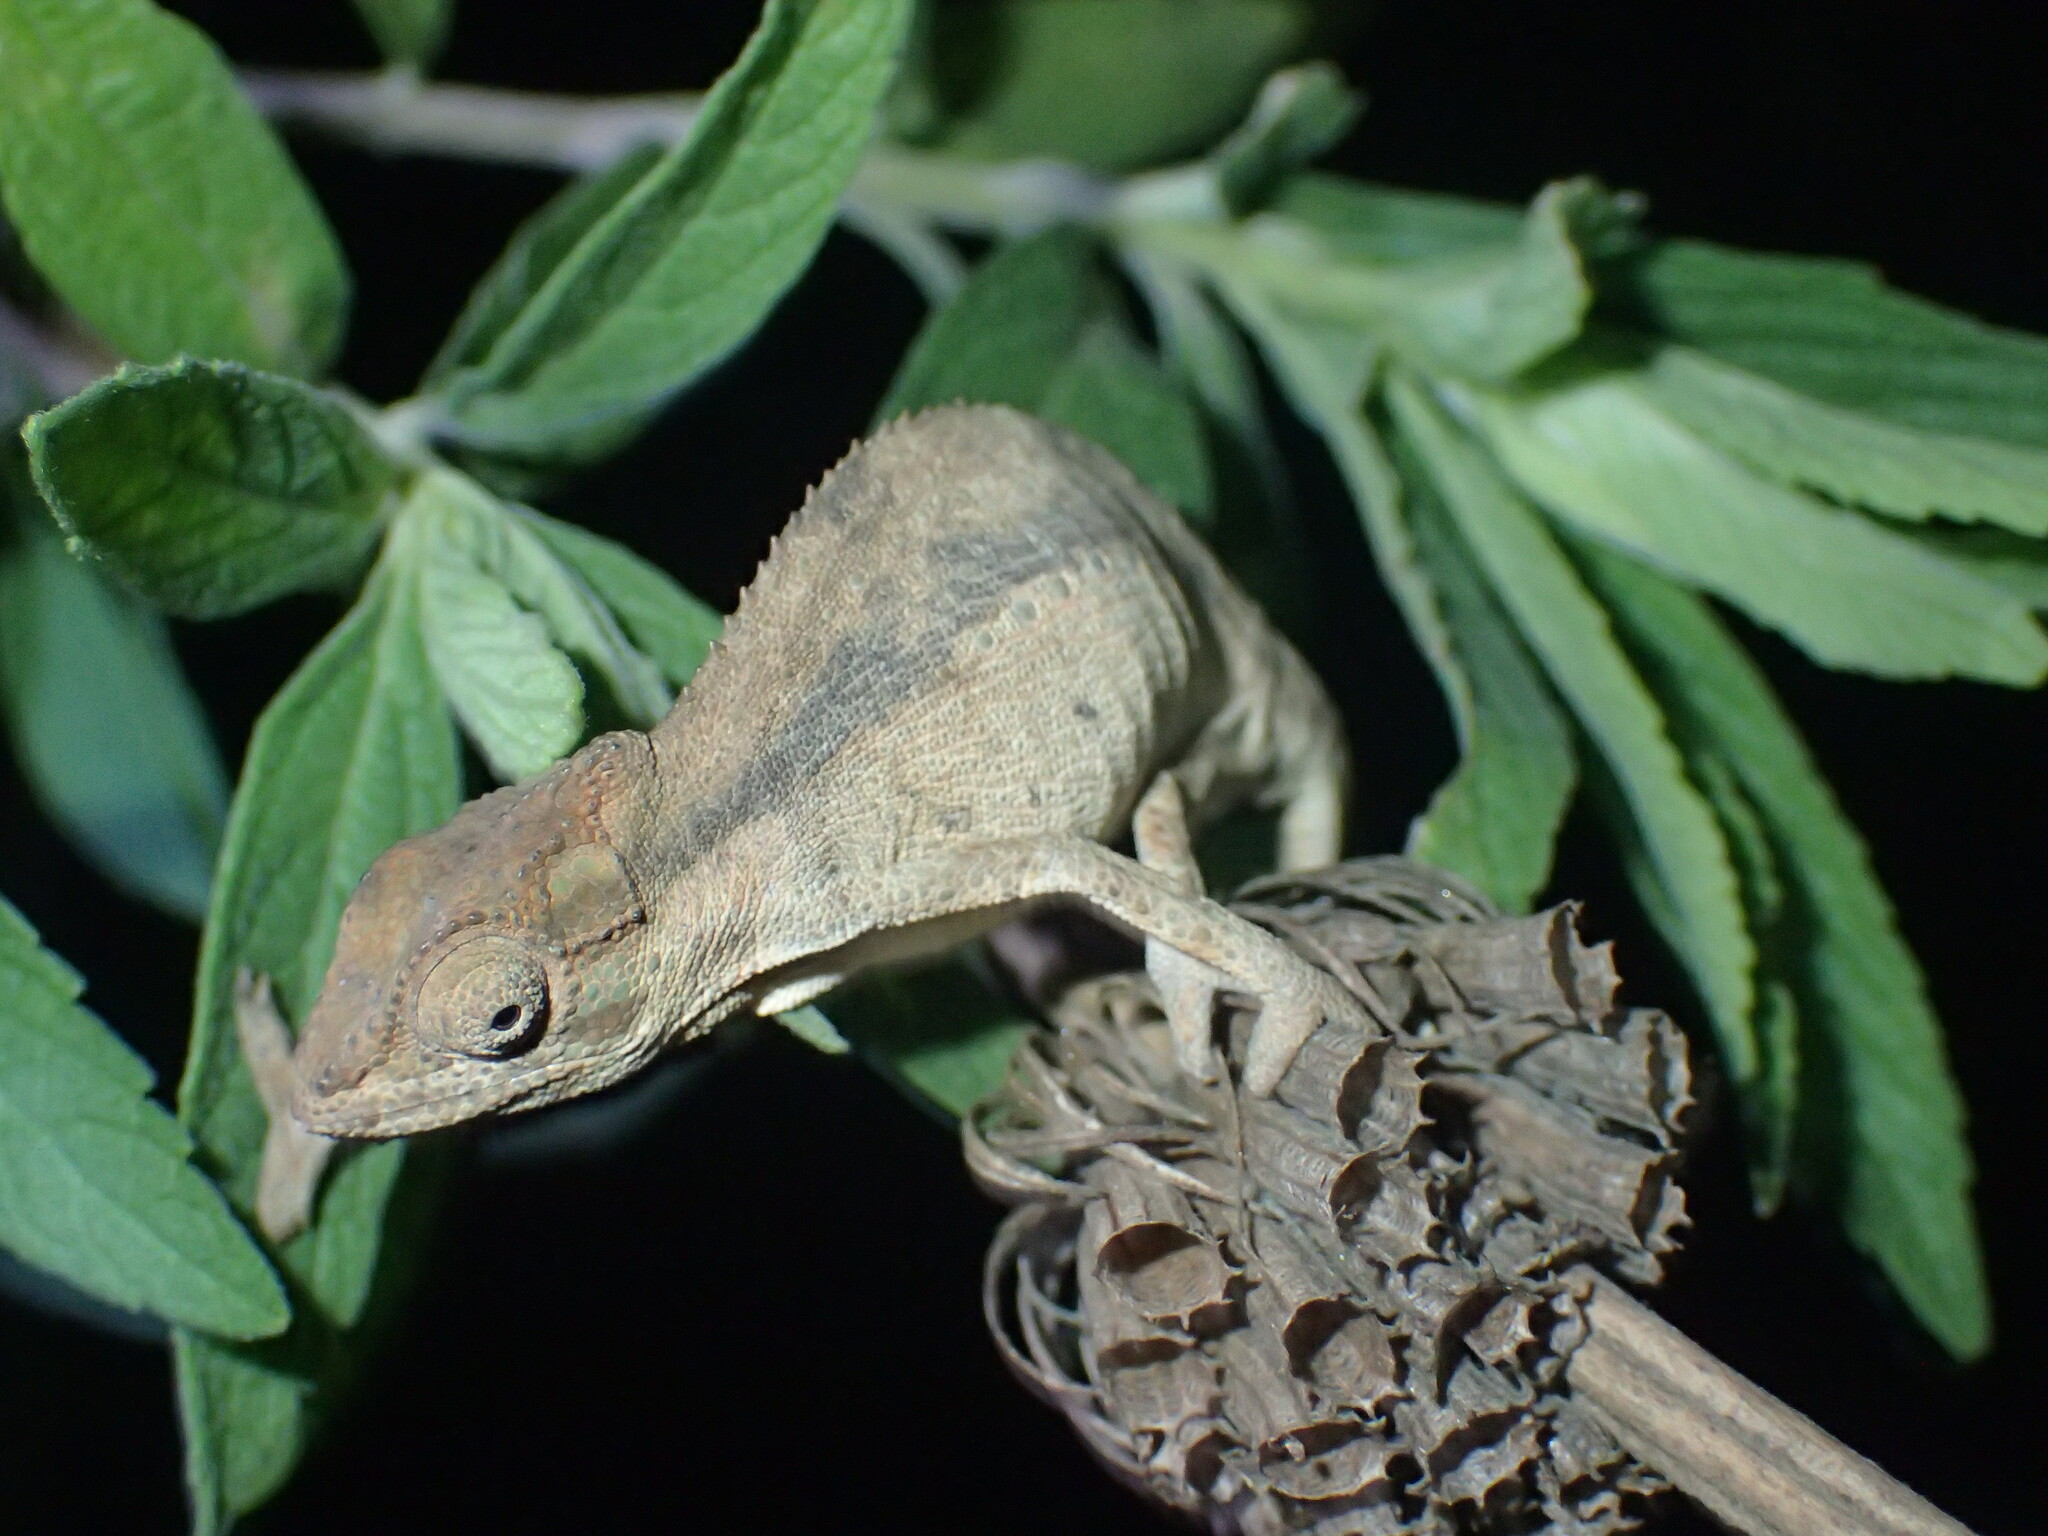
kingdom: Animalia
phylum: Chordata
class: Squamata
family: Chamaeleonidae
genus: Bradypodion
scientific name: Bradypodion melanocephalum
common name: Black-headed dwarf chameleon
